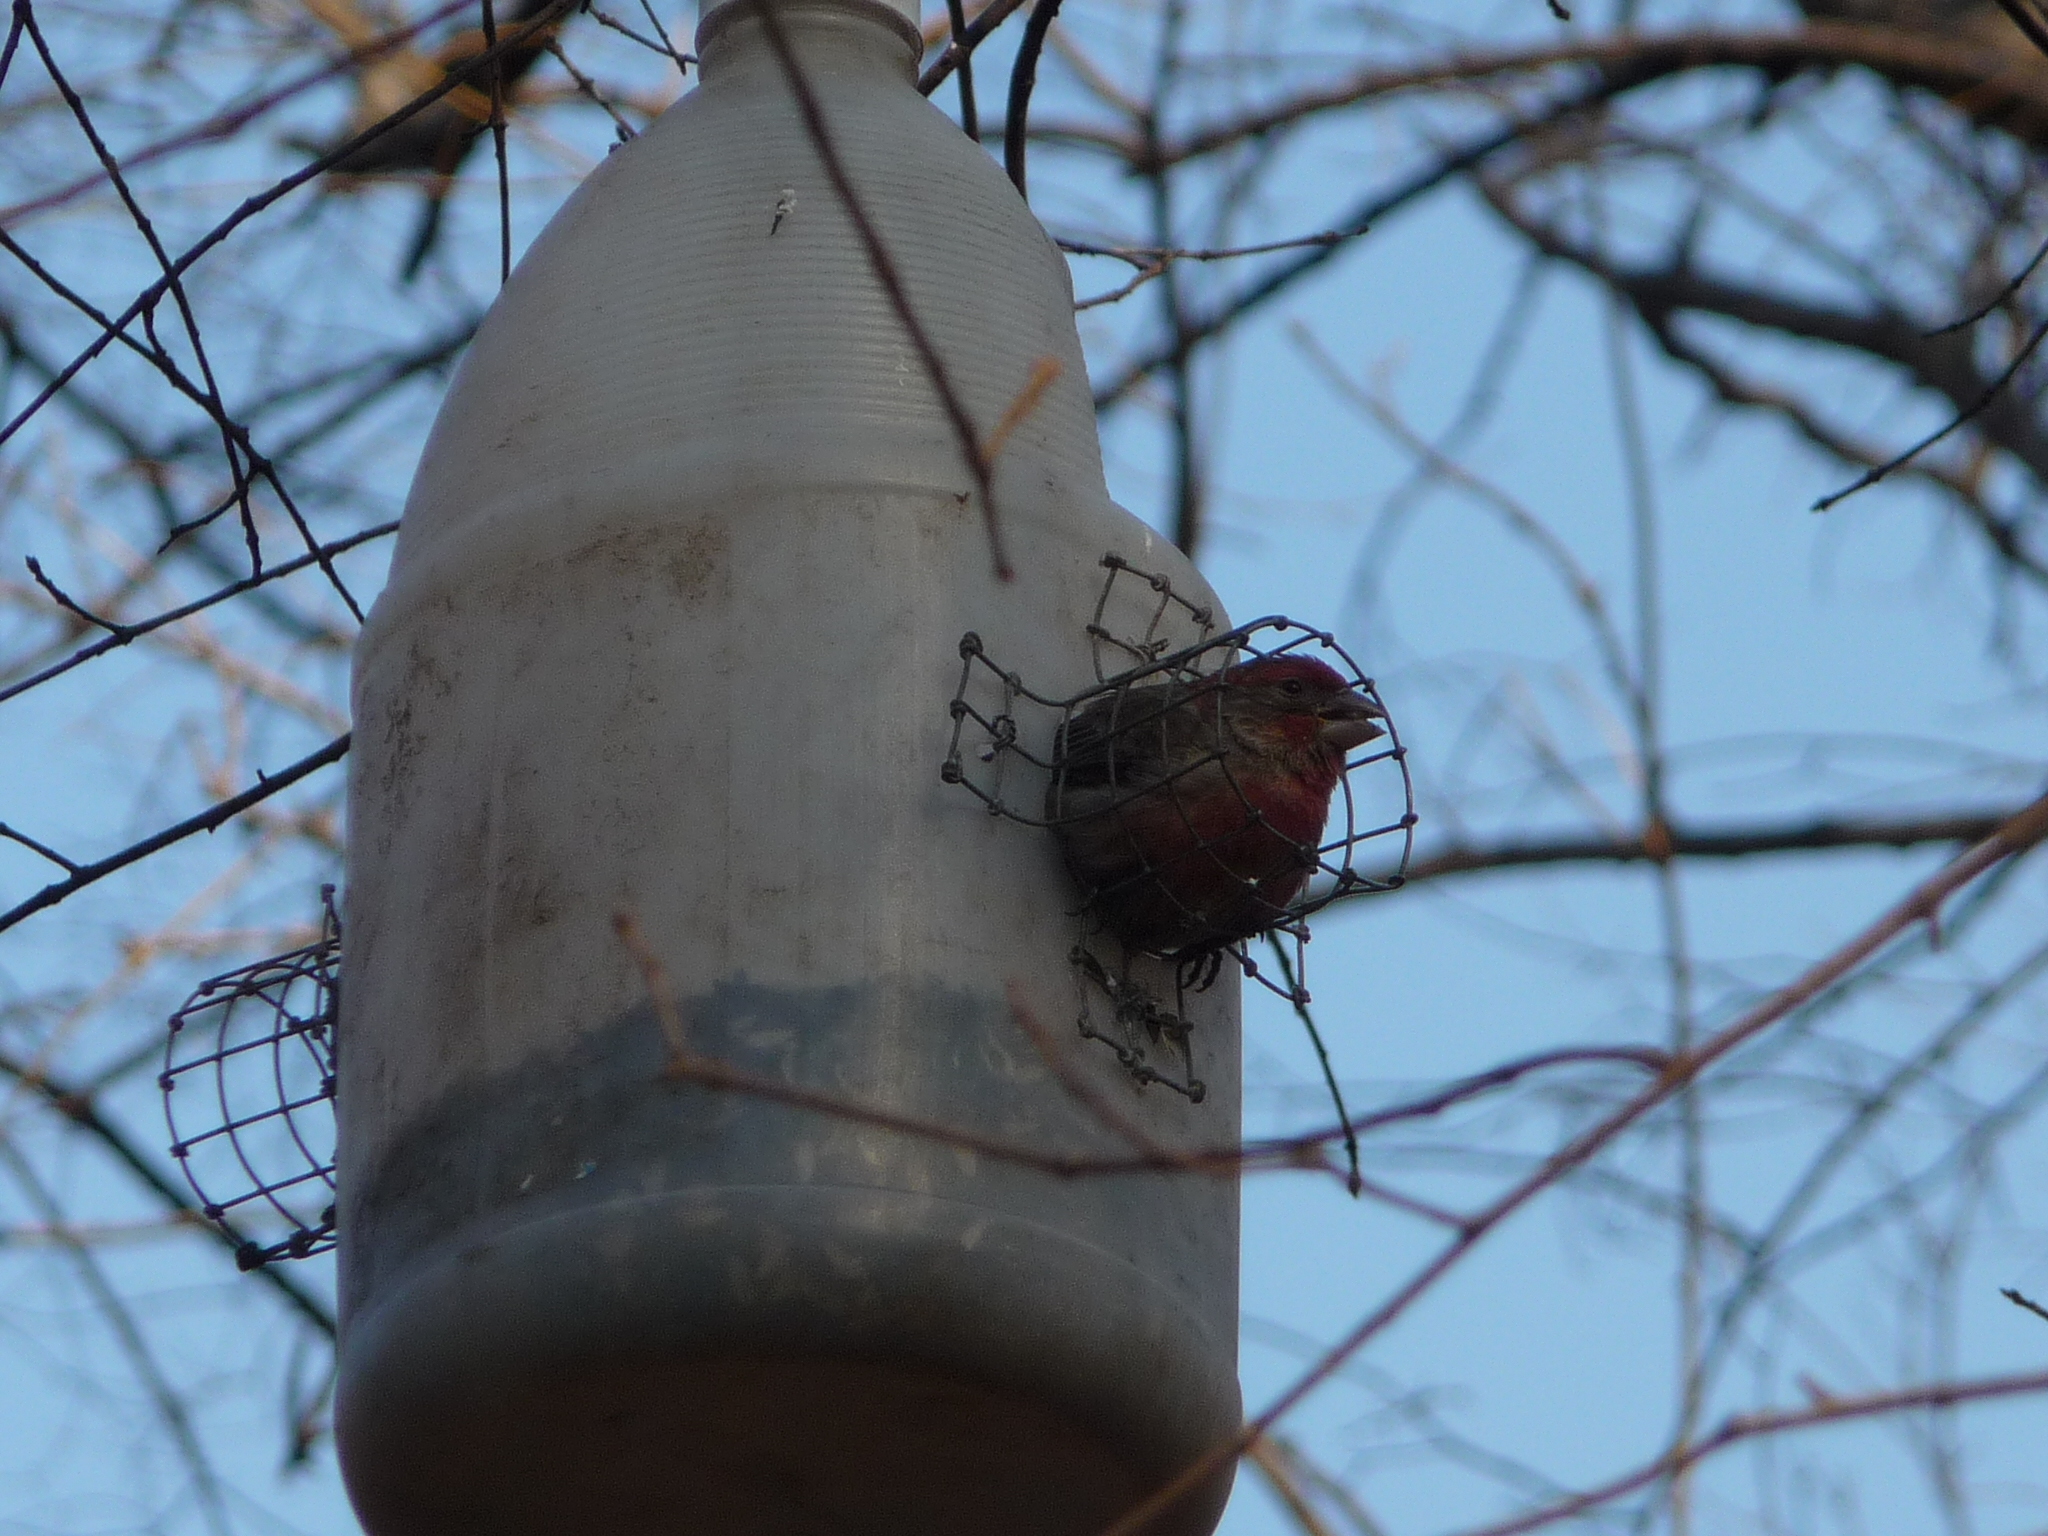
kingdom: Animalia
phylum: Chordata
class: Aves
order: Passeriformes
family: Fringillidae
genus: Haemorhous
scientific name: Haemorhous mexicanus
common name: House finch
